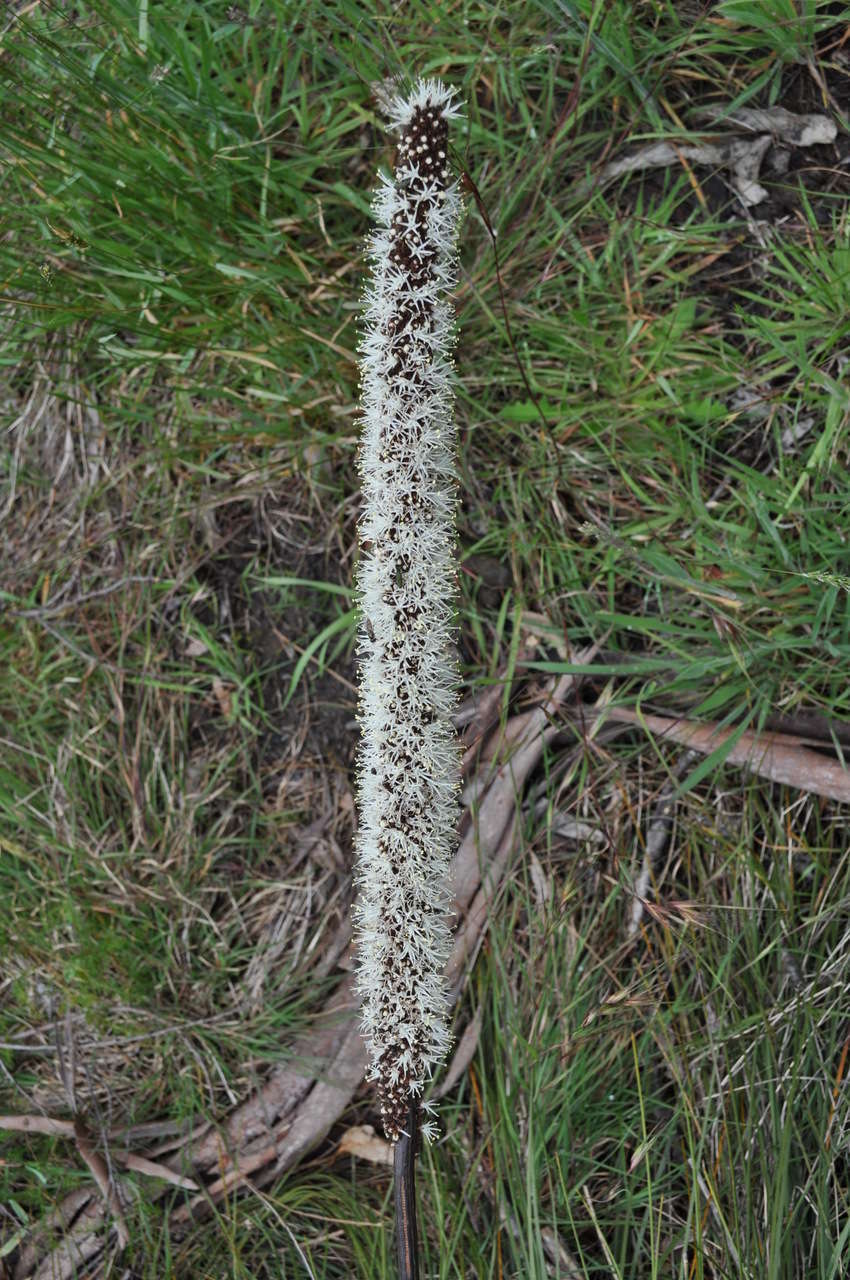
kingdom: Plantae
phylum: Tracheophyta
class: Liliopsida
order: Asparagales
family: Asphodelaceae
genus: Xanthorrhoea
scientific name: Xanthorrhoea minor
